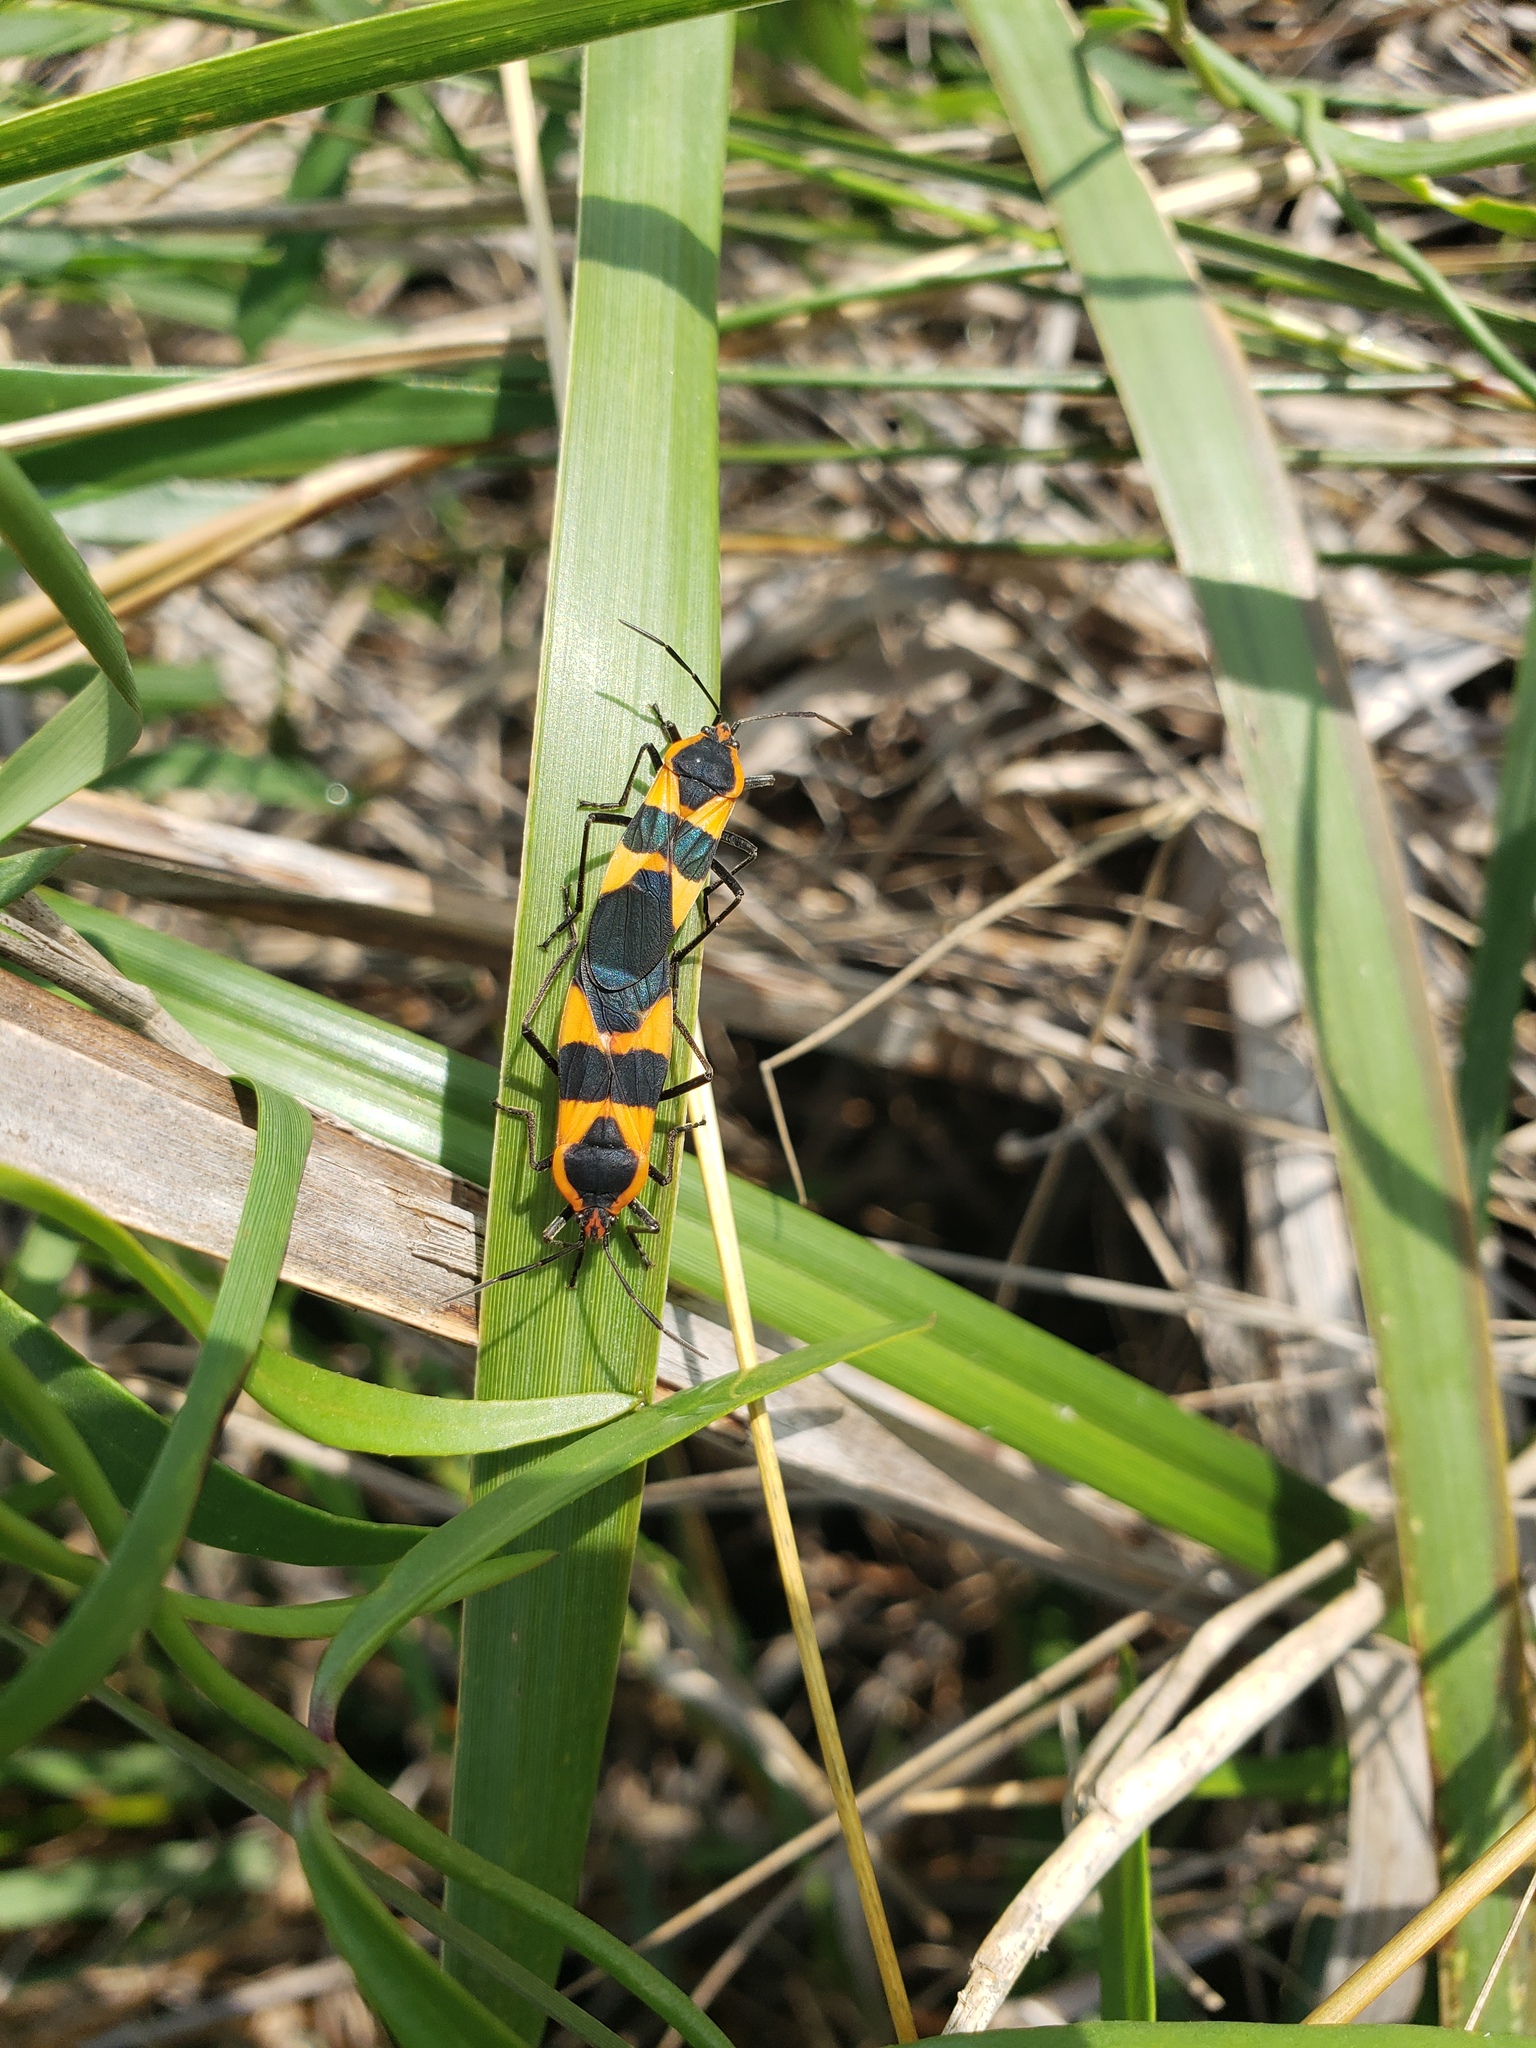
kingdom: Animalia
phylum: Arthropoda
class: Insecta
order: Hemiptera
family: Lygaeidae
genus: Oncopeltus
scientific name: Oncopeltus fasciatus
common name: Large milkweed bug
